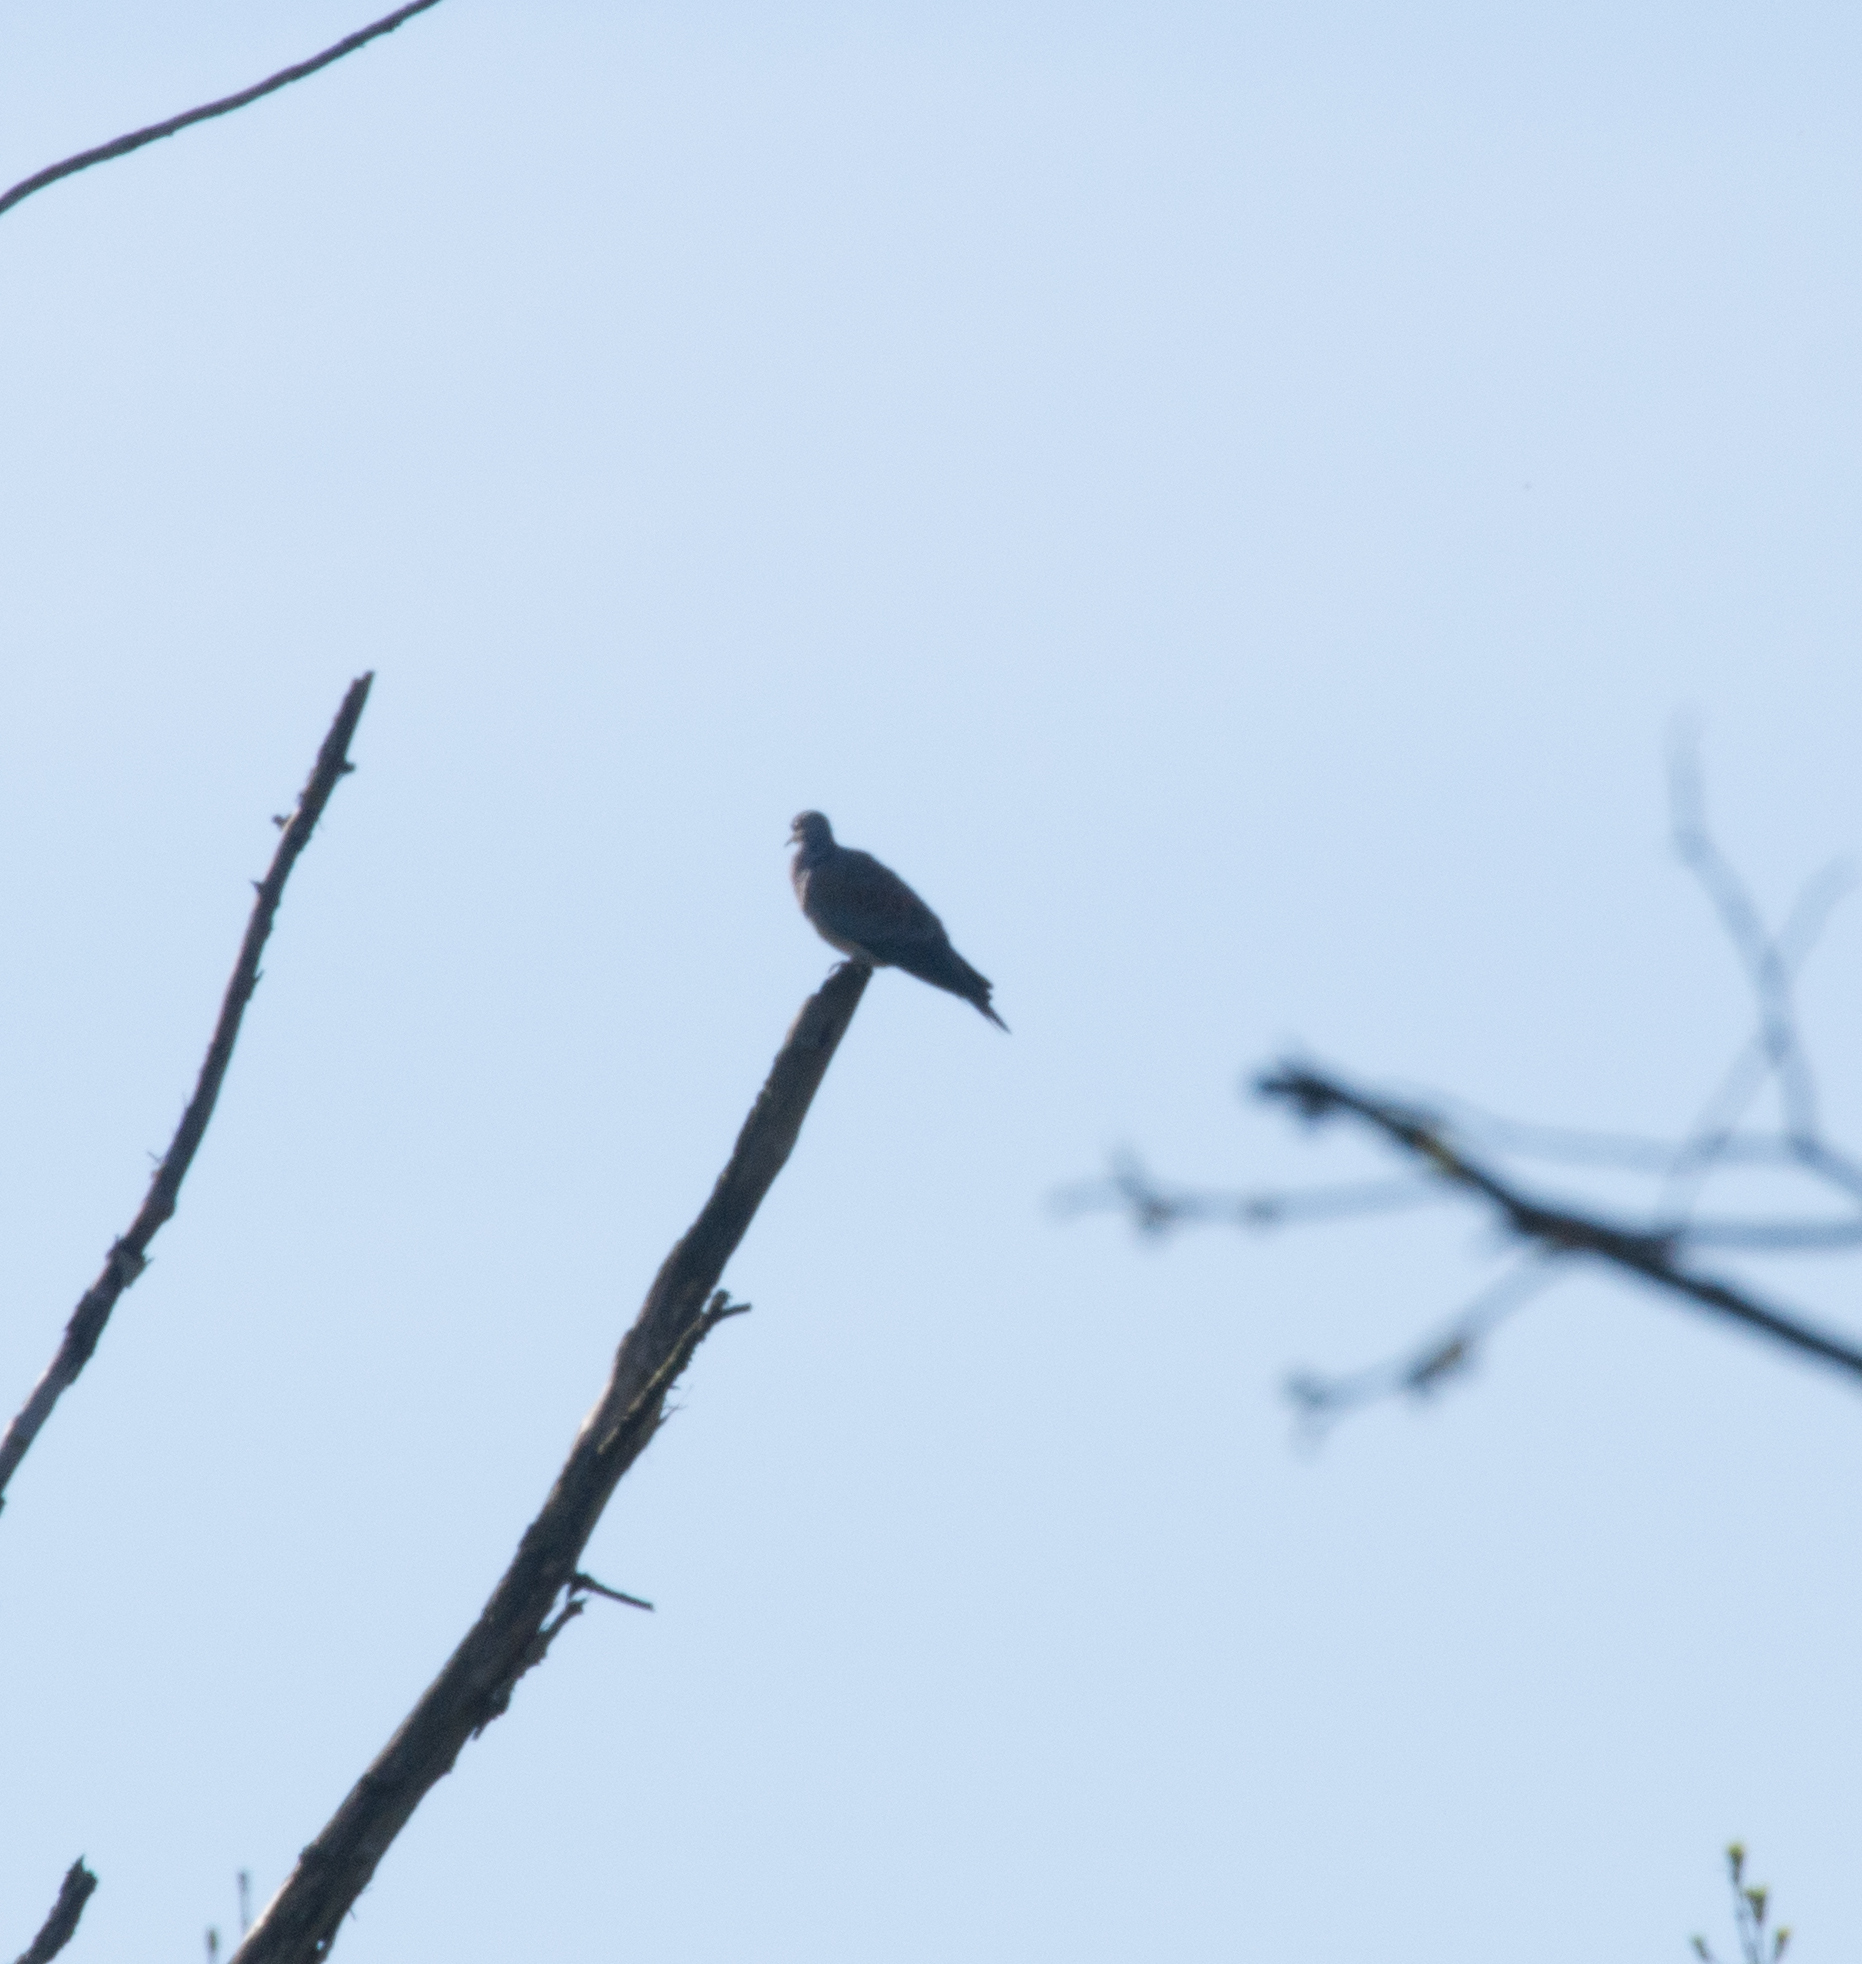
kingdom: Animalia
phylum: Chordata
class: Aves
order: Columbiformes
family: Columbidae
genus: Streptopelia
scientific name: Streptopelia turtur
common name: European turtle dove
